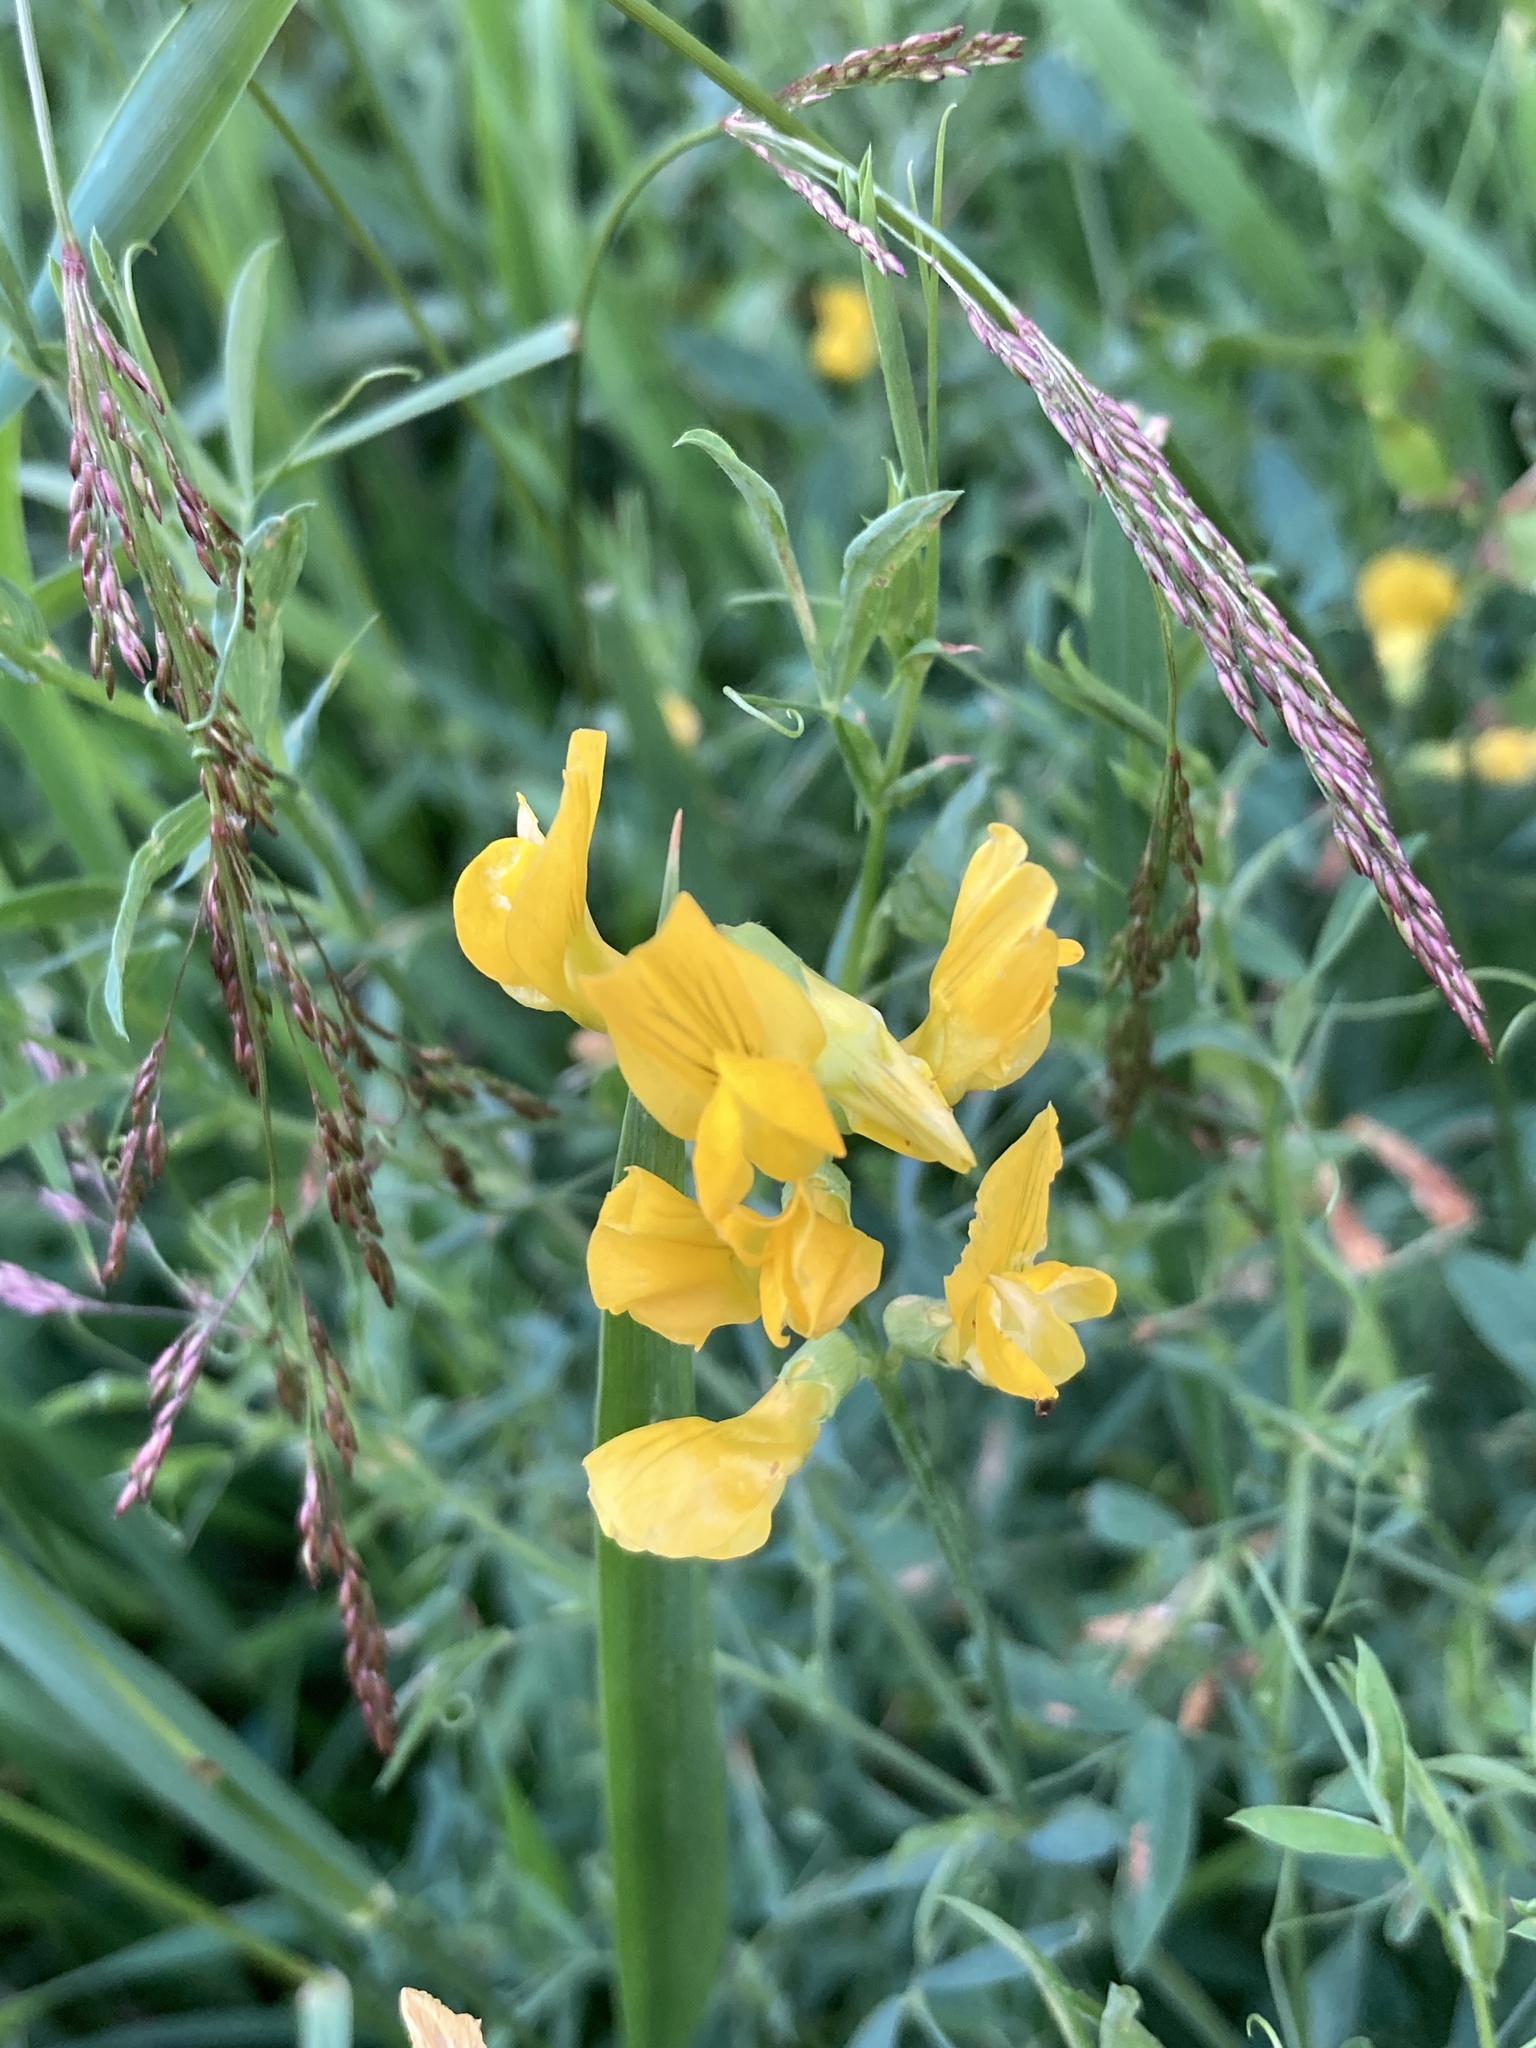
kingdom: Plantae
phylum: Tracheophyta
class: Magnoliopsida
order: Fabales
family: Fabaceae
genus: Lathyrus
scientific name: Lathyrus pratensis
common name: Meadow vetchling
